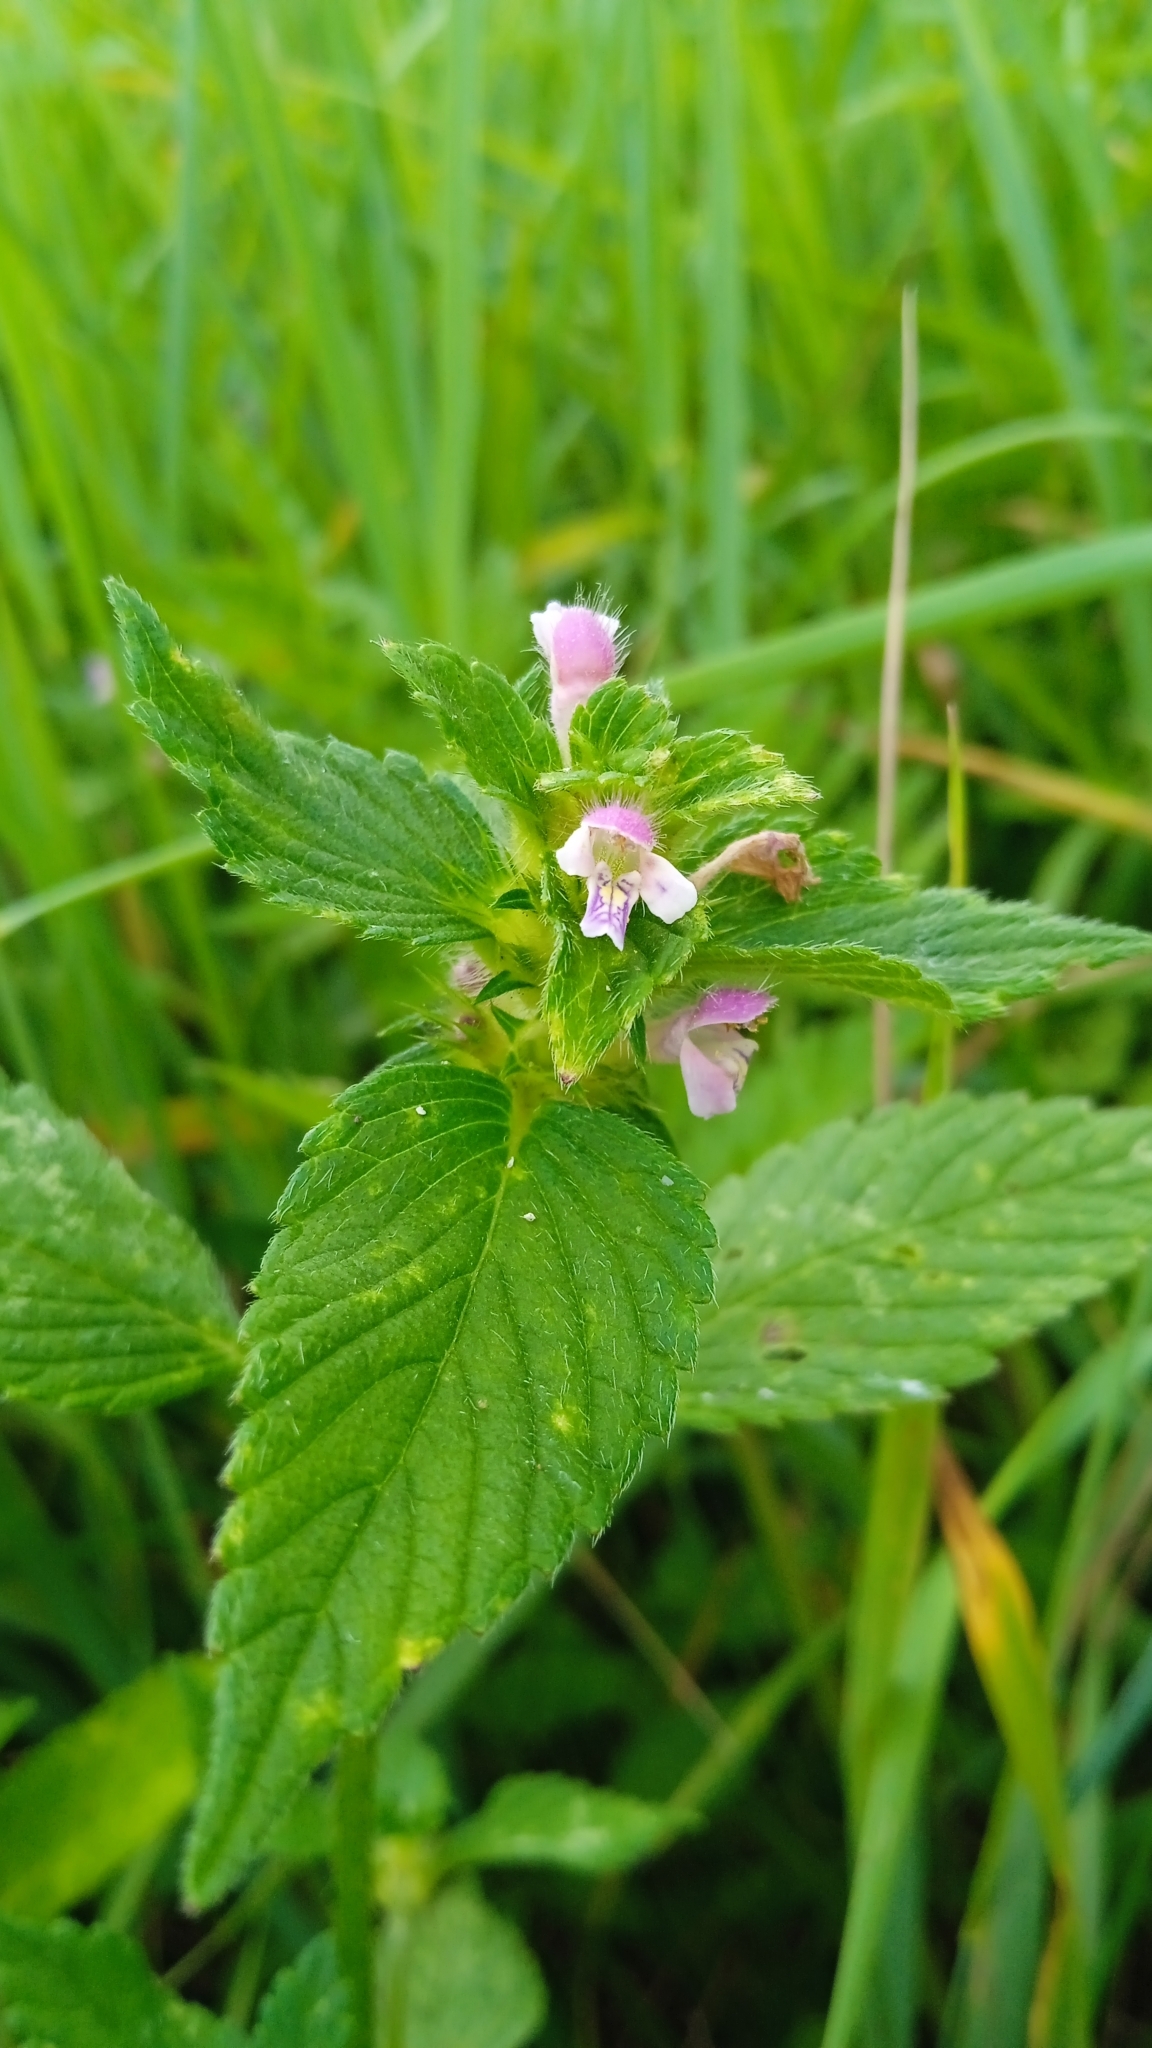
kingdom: Plantae
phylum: Tracheophyta
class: Magnoliopsida
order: Lamiales
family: Lamiaceae
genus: Galeopsis
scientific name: Galeopsis bifida
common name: Bifid hemp-nettle
